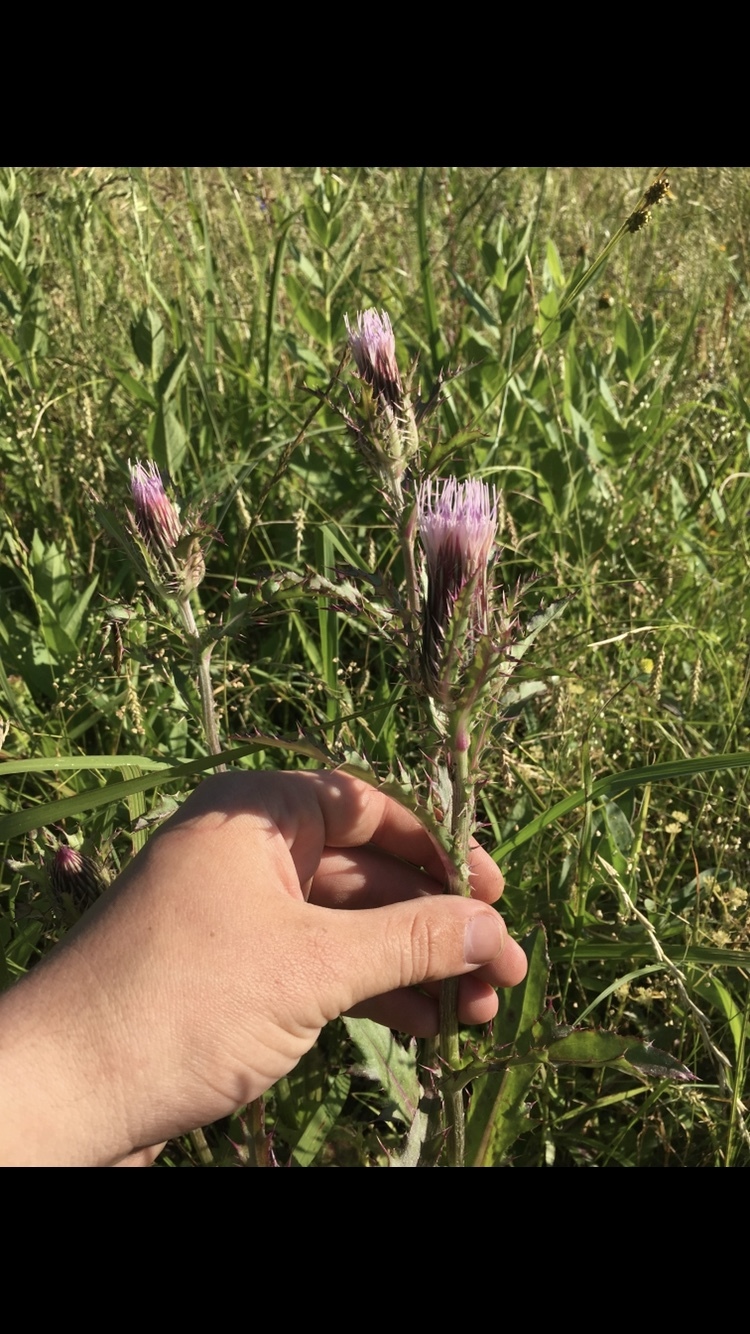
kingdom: Plantae
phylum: Tracheophyta
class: Magnoliopsida
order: Asterales
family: Asteraceae
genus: Cirsium
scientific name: Cirsium horridulum
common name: Bristly thistle
